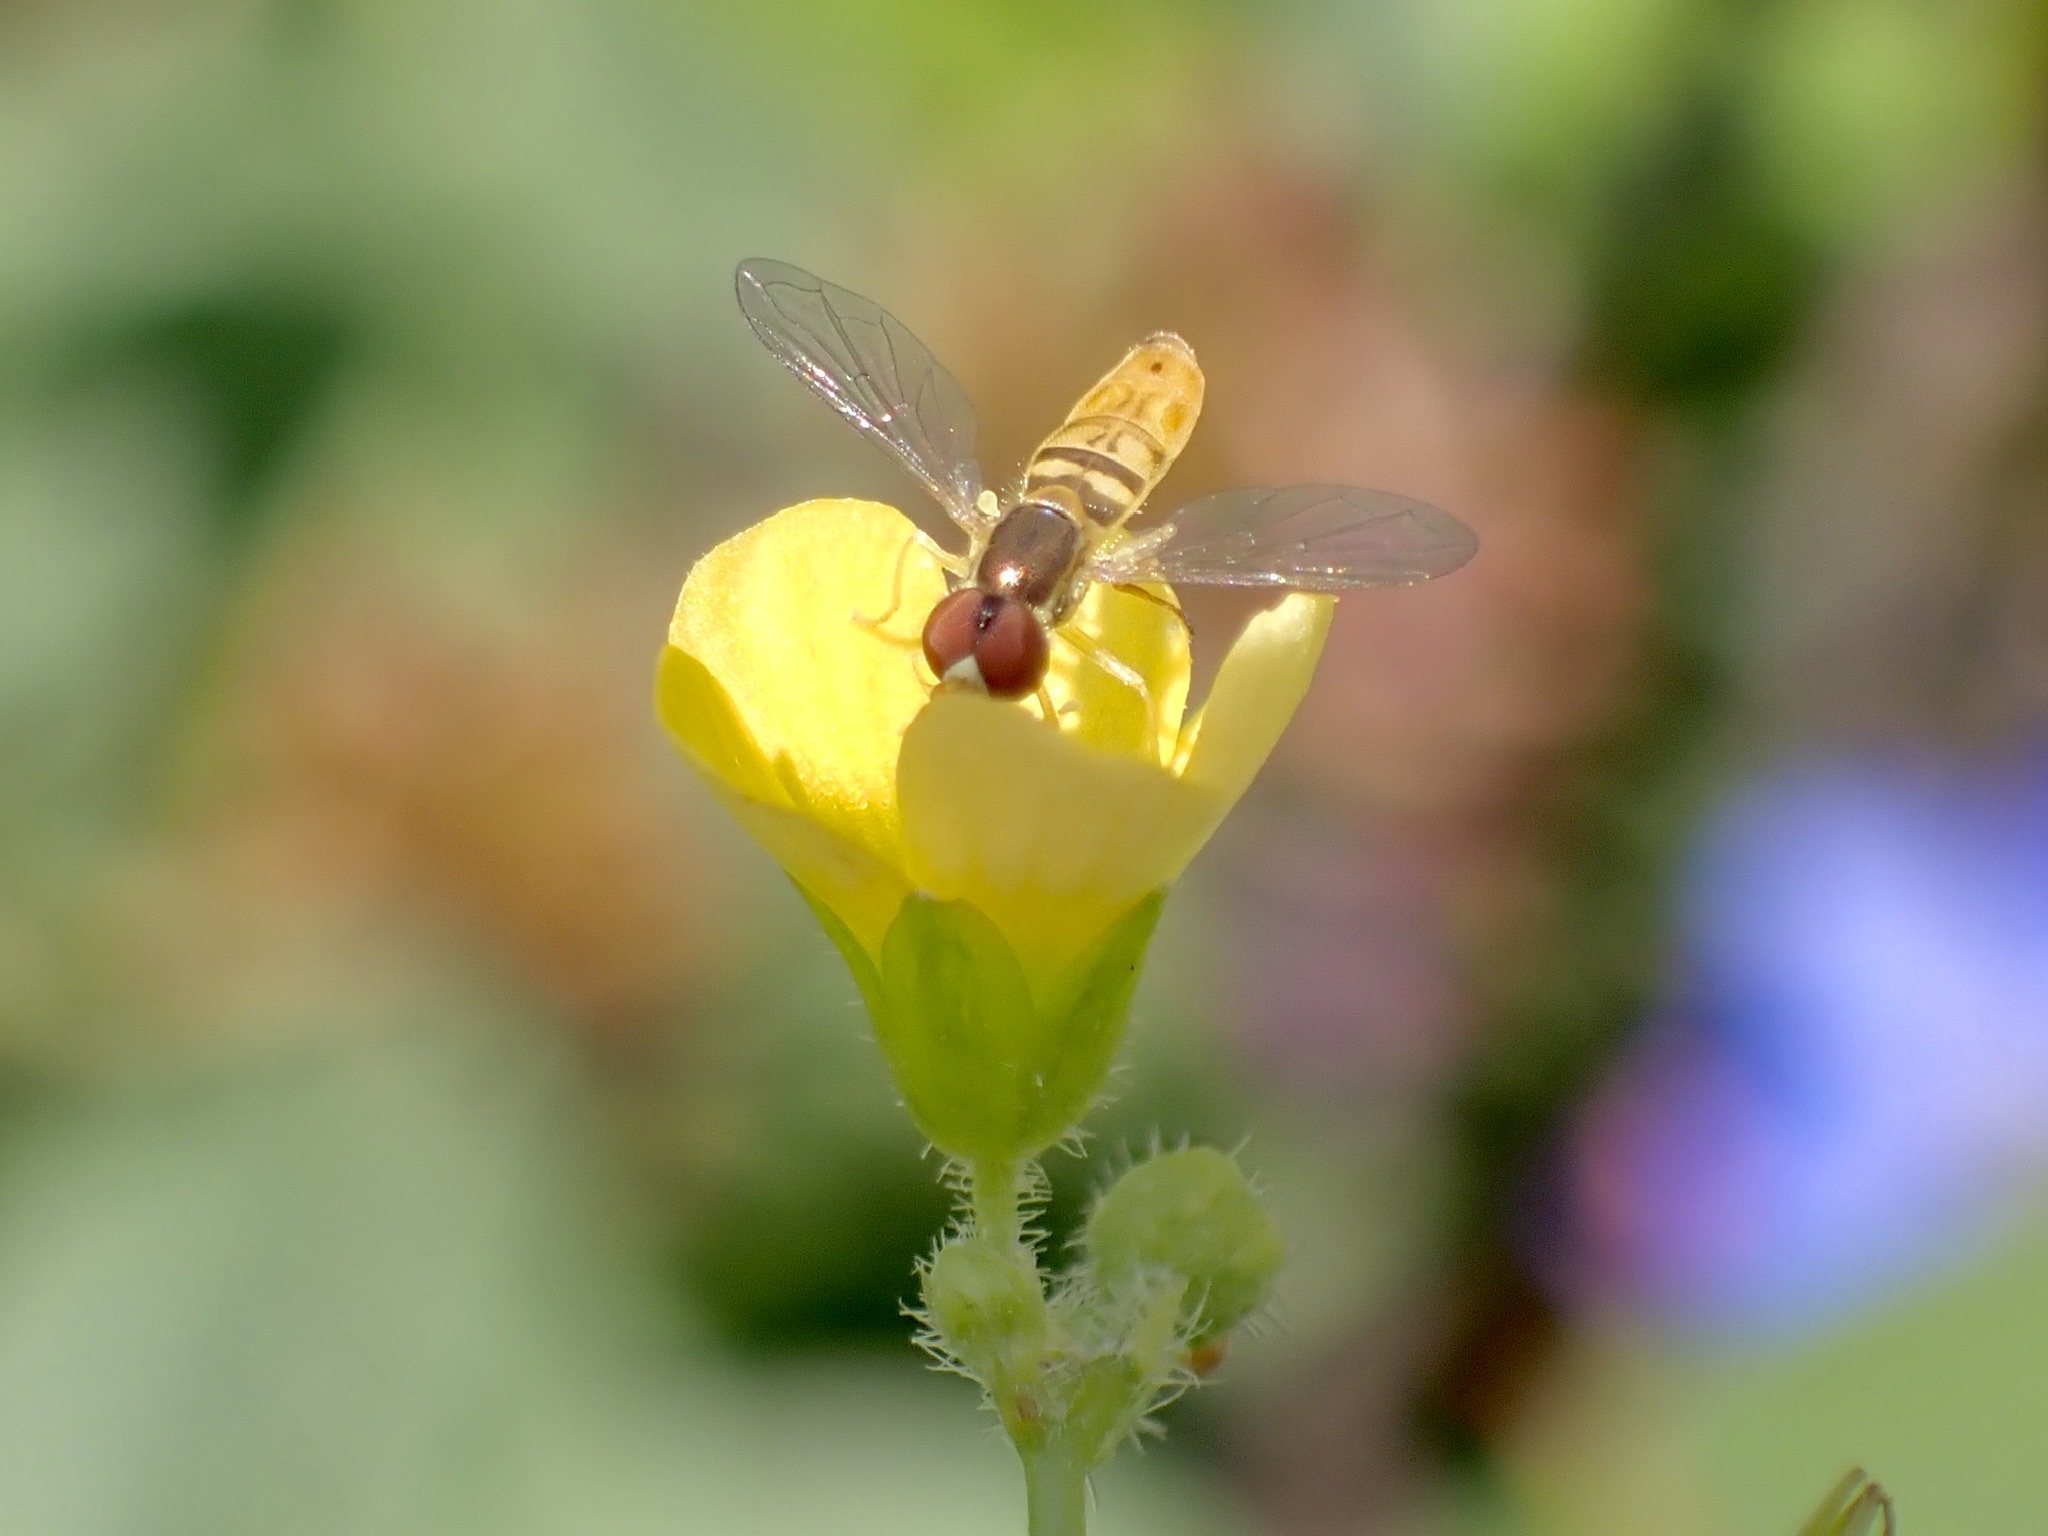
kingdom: Animalia
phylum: Arthropoda
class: Insecta
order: Diptera
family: Syrphidae
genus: Toxomerus
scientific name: Toxomerus marginatus
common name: Syrphid fly
